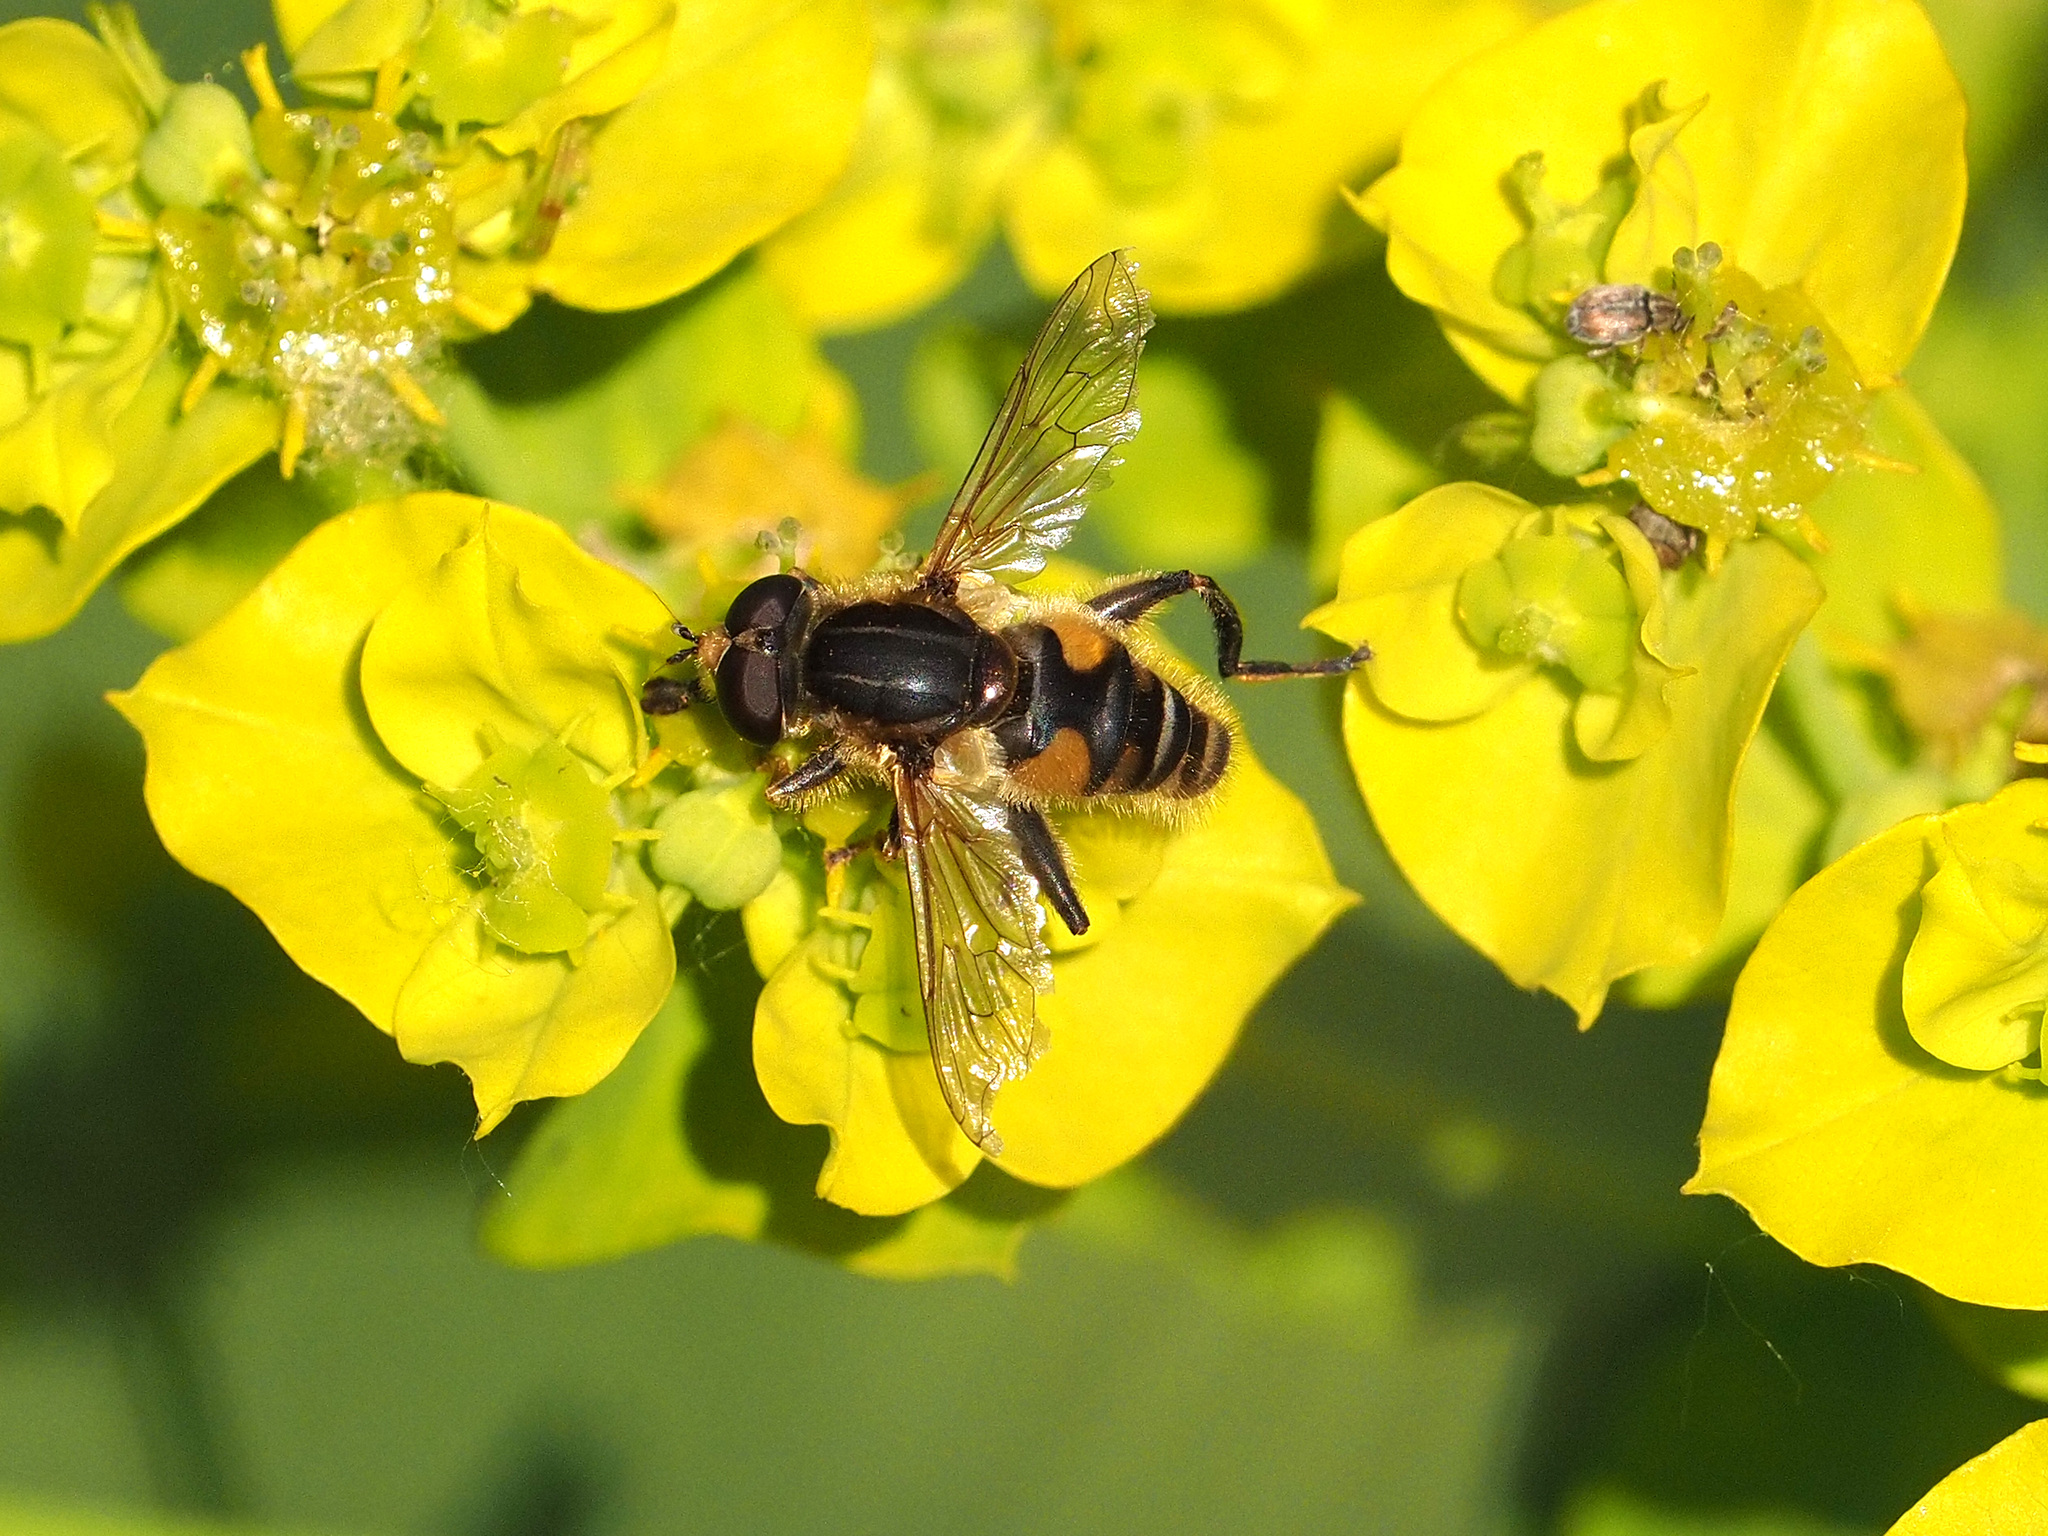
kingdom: Animalia
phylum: Arthropoda
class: Insecta
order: Diptera
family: Syrphidae
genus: Mesembrius
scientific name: Mesembrius peregrinus
